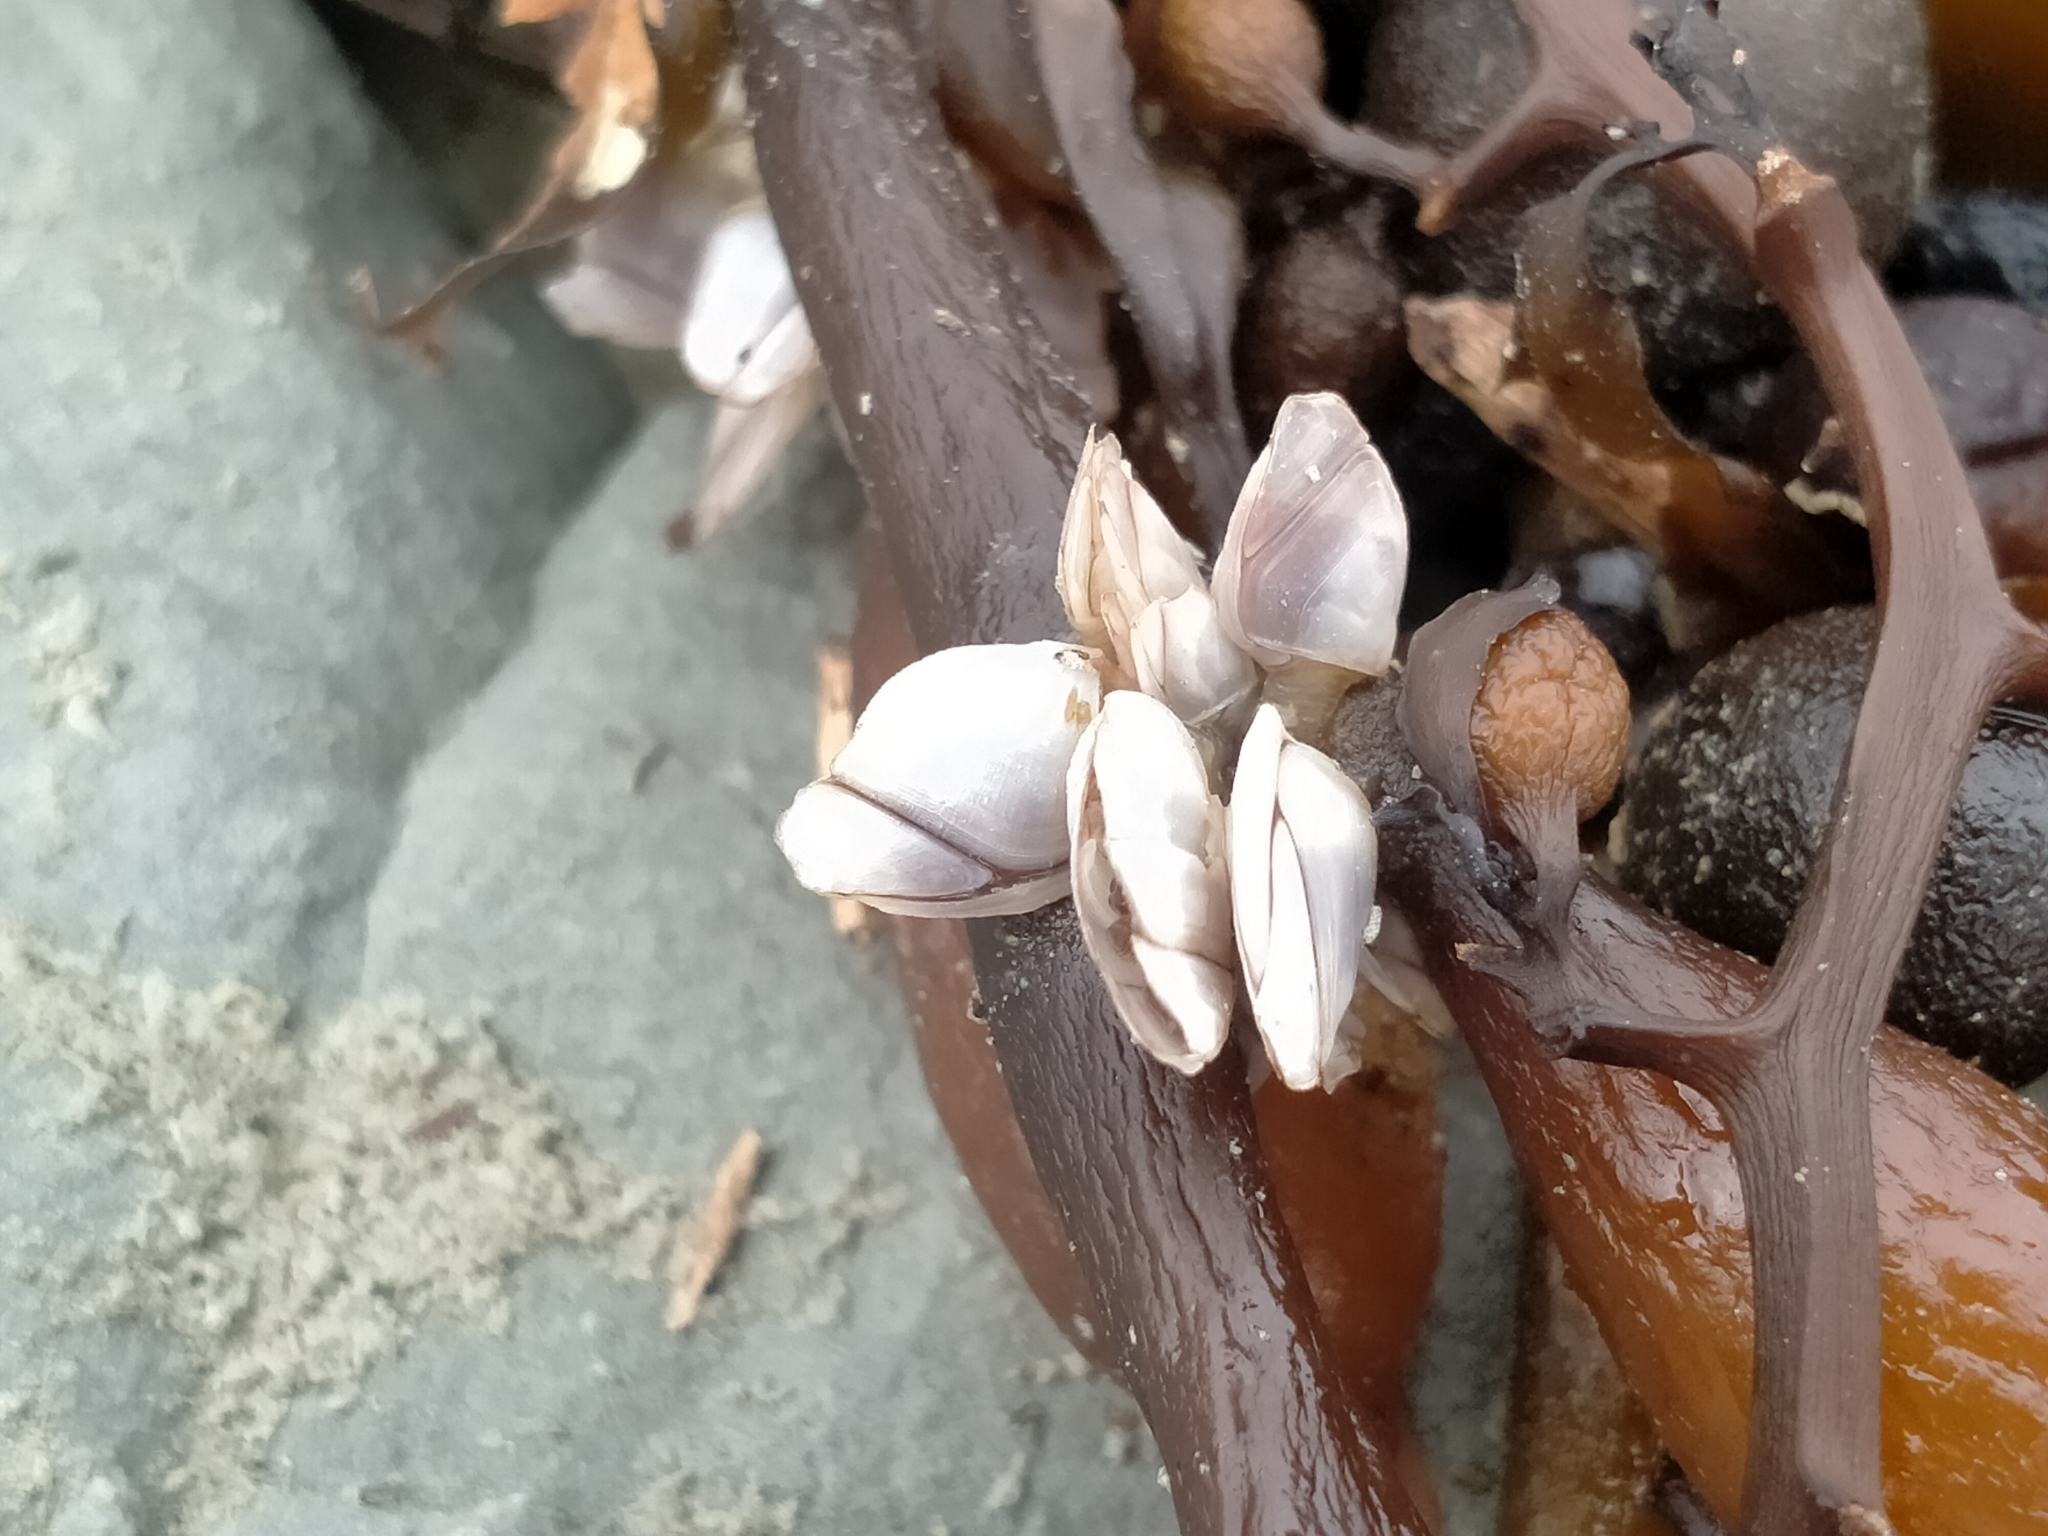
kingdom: Animalia
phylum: Arthropoda
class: Maxillopoda
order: Pedunculata
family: Lepadidae
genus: Lepas
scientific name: Lepas australis
